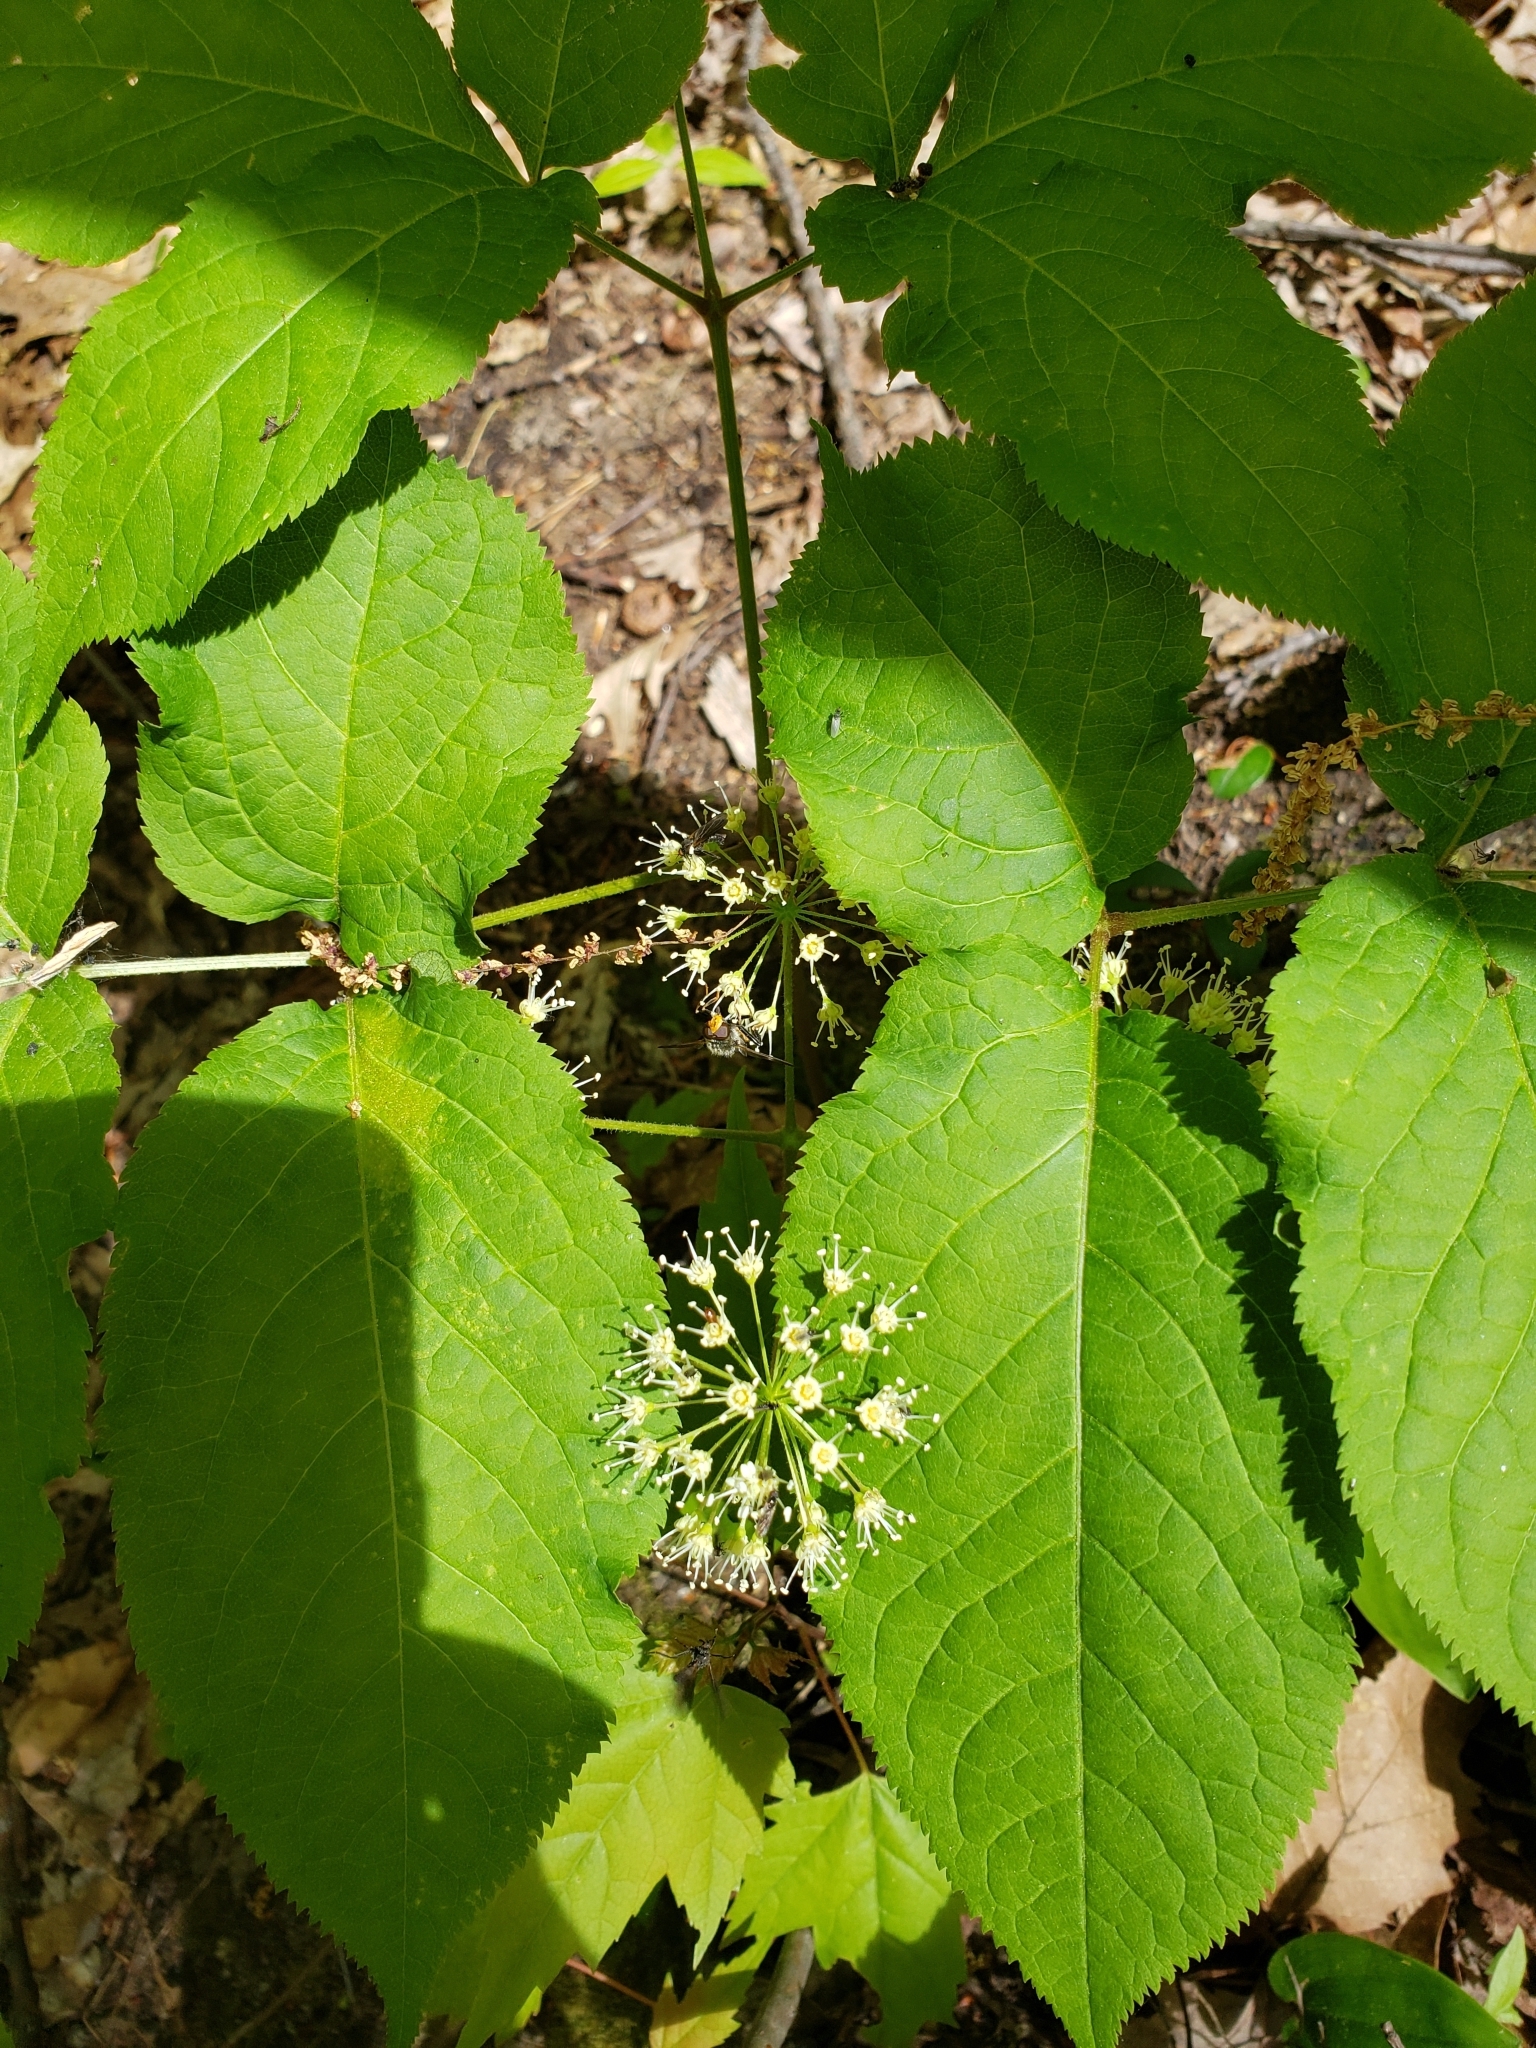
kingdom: Plantae
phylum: Tracheophyta
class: Magnoliopsida
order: Apiales
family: Araliaceae
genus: Aralia
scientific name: Aralia nudicaulis
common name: Wild sarsaparilla
